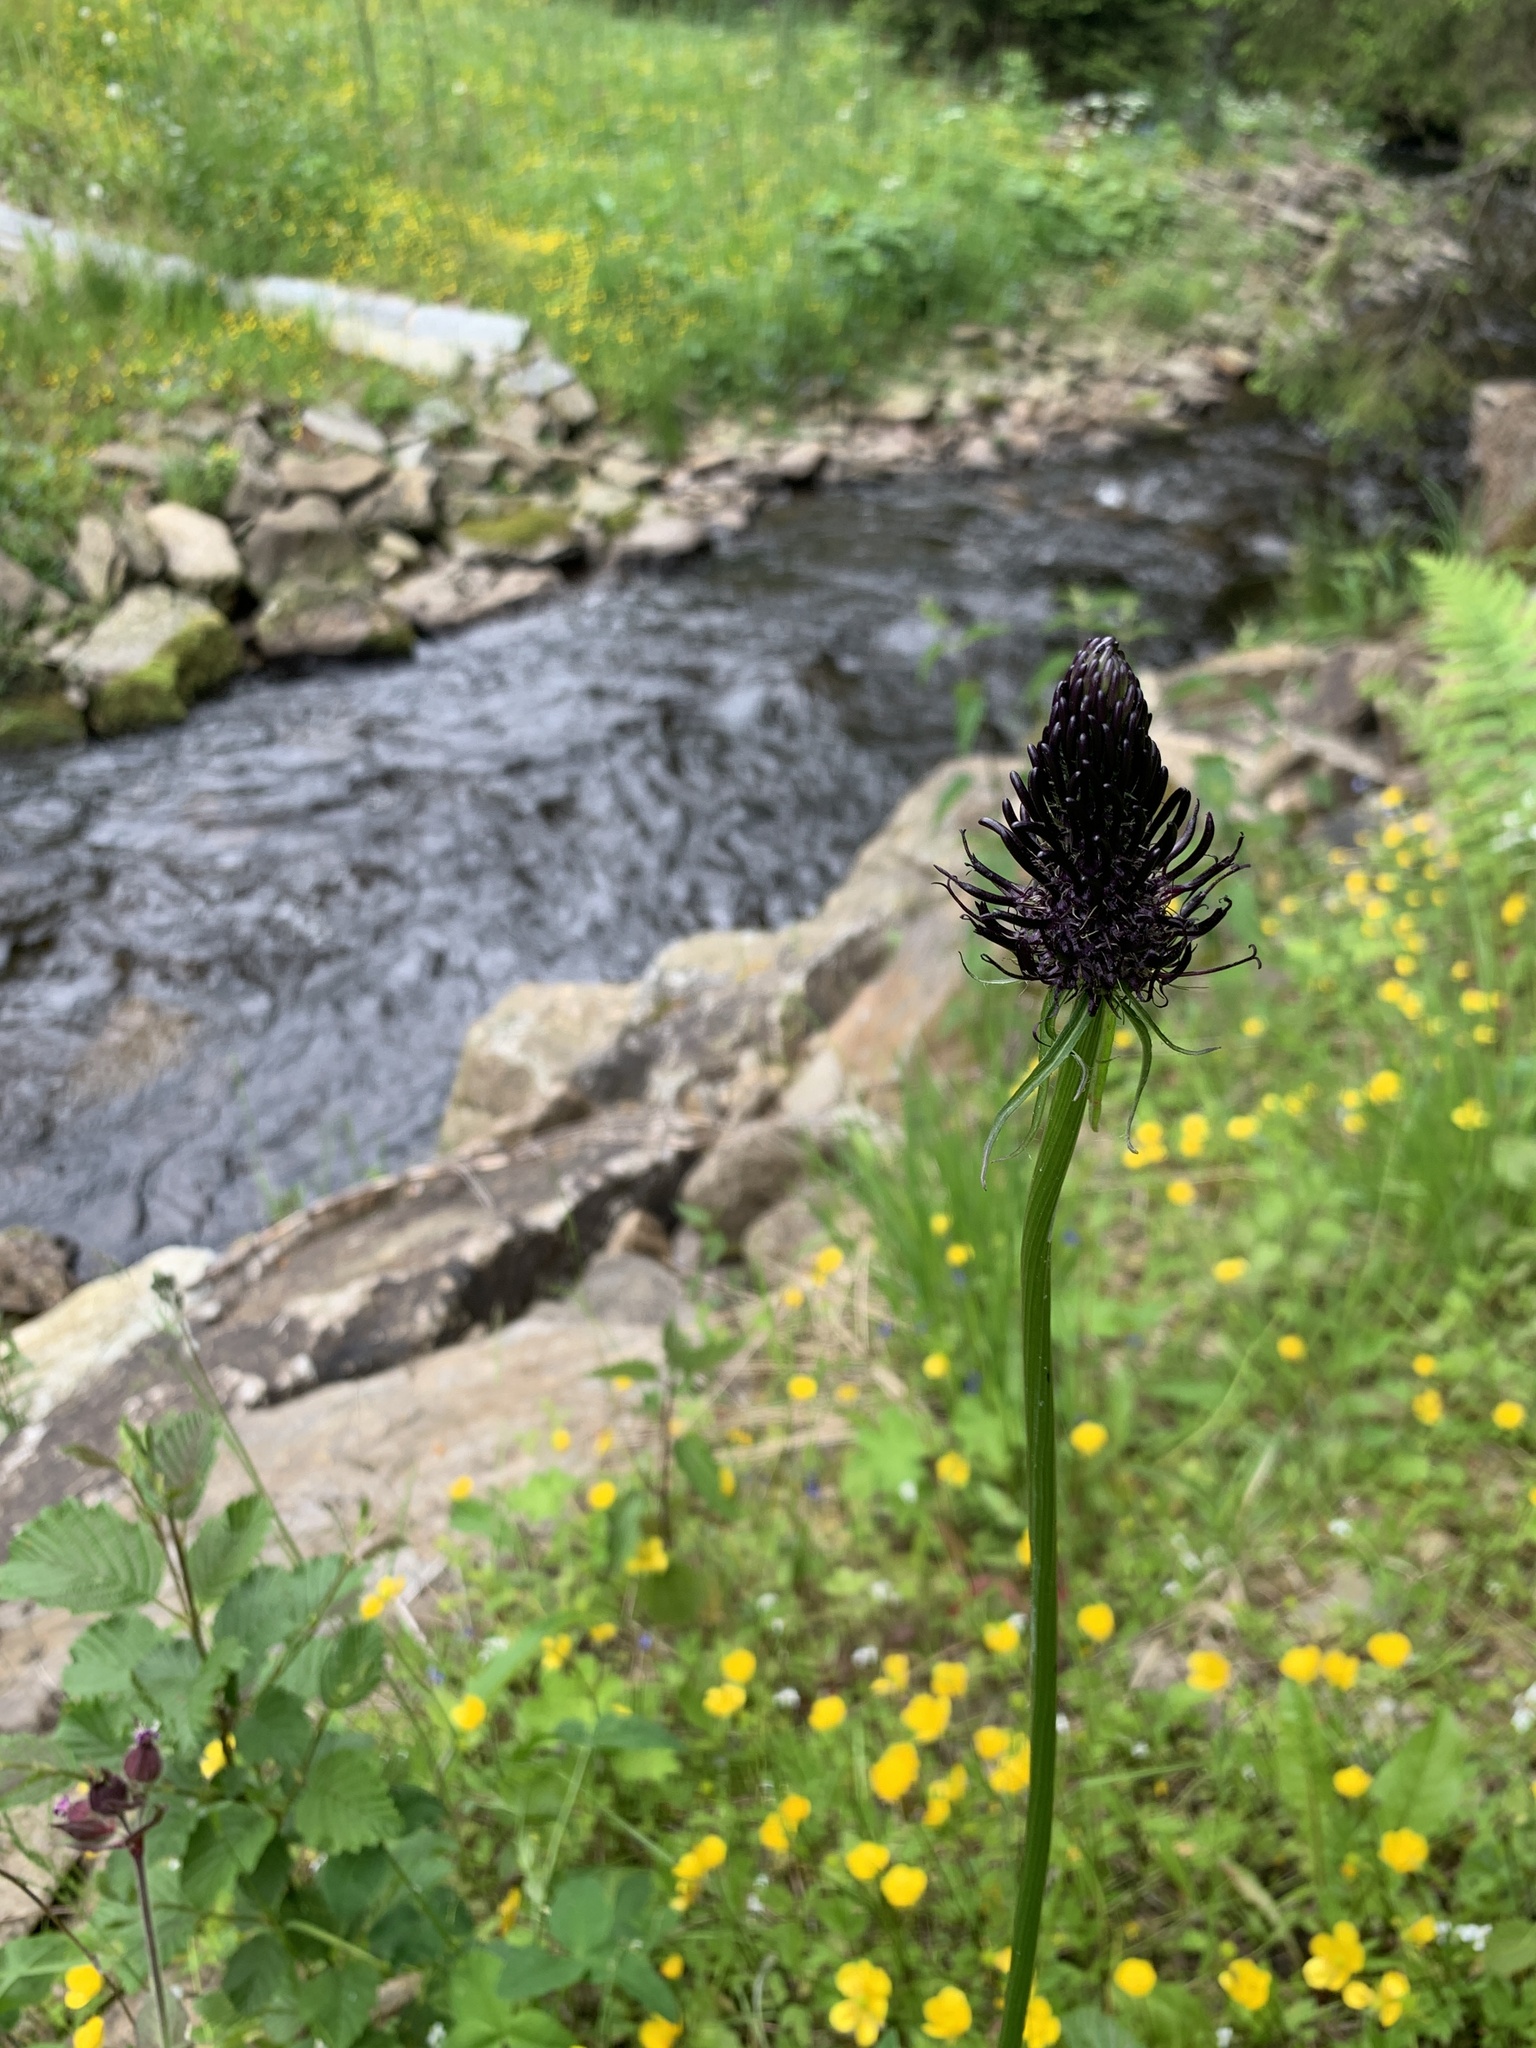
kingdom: Plantae
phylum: Tracheophyta
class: Magnoliopsida
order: Asterales
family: Campanulaceae
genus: Phyteuma
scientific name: Phyteuma nigrum
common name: Black rampion
